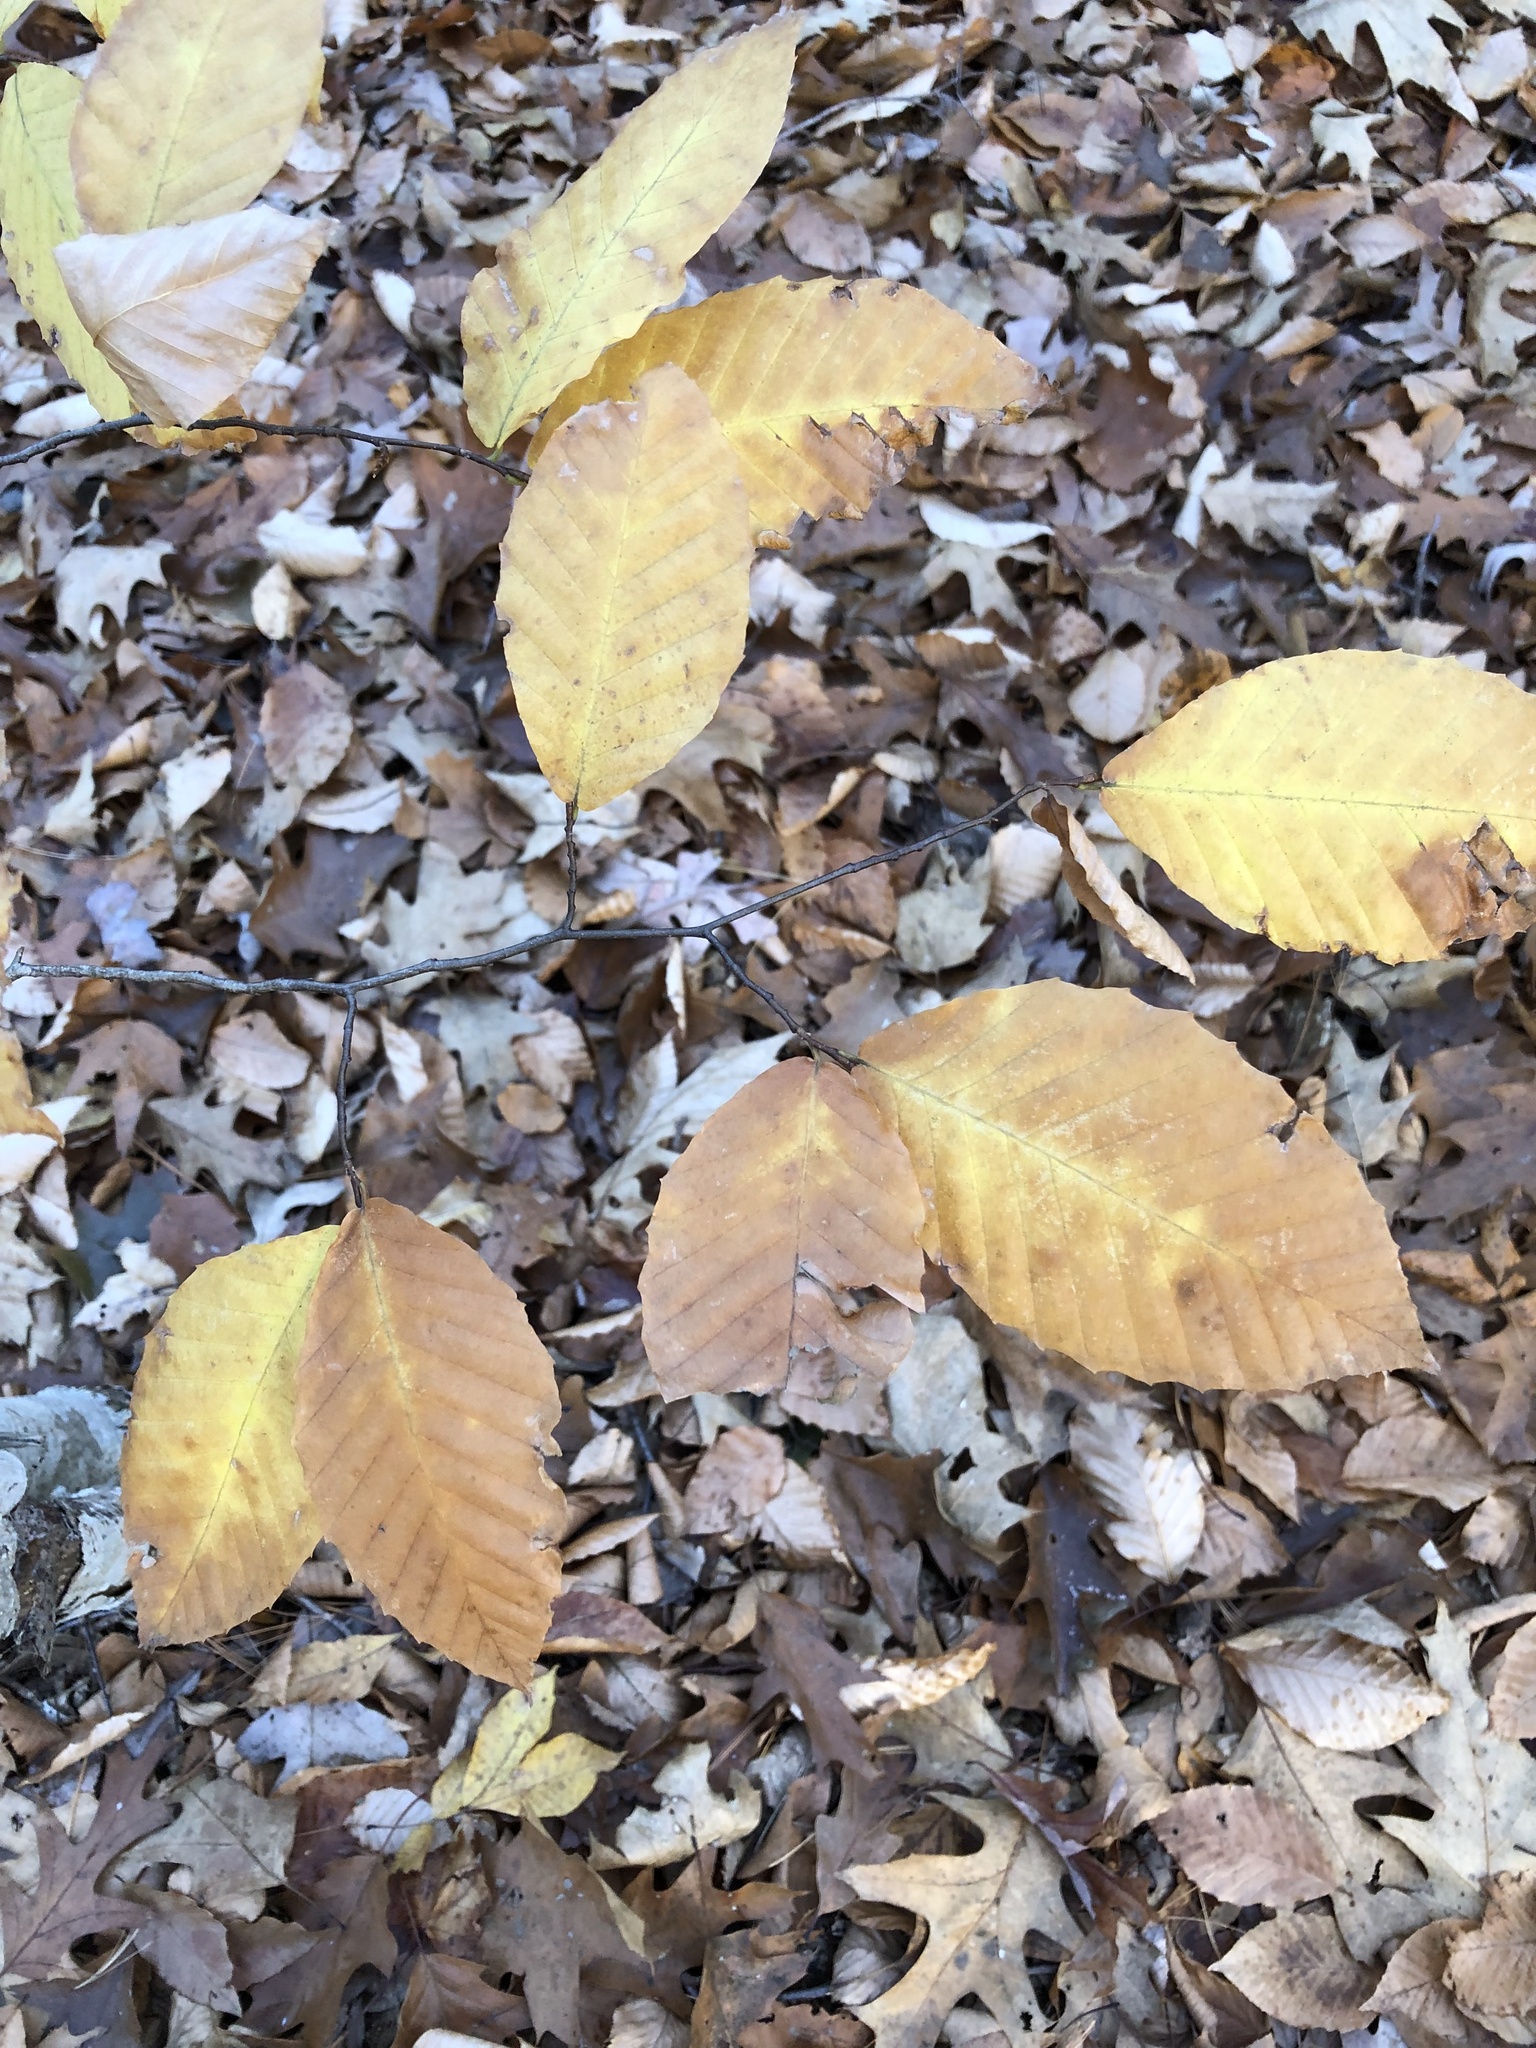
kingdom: Plantae
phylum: Tracheophyta
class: Magnoliopsida
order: Fagales
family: Fagaceae
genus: Fagus
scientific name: Fagus grandifolia
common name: American beech
